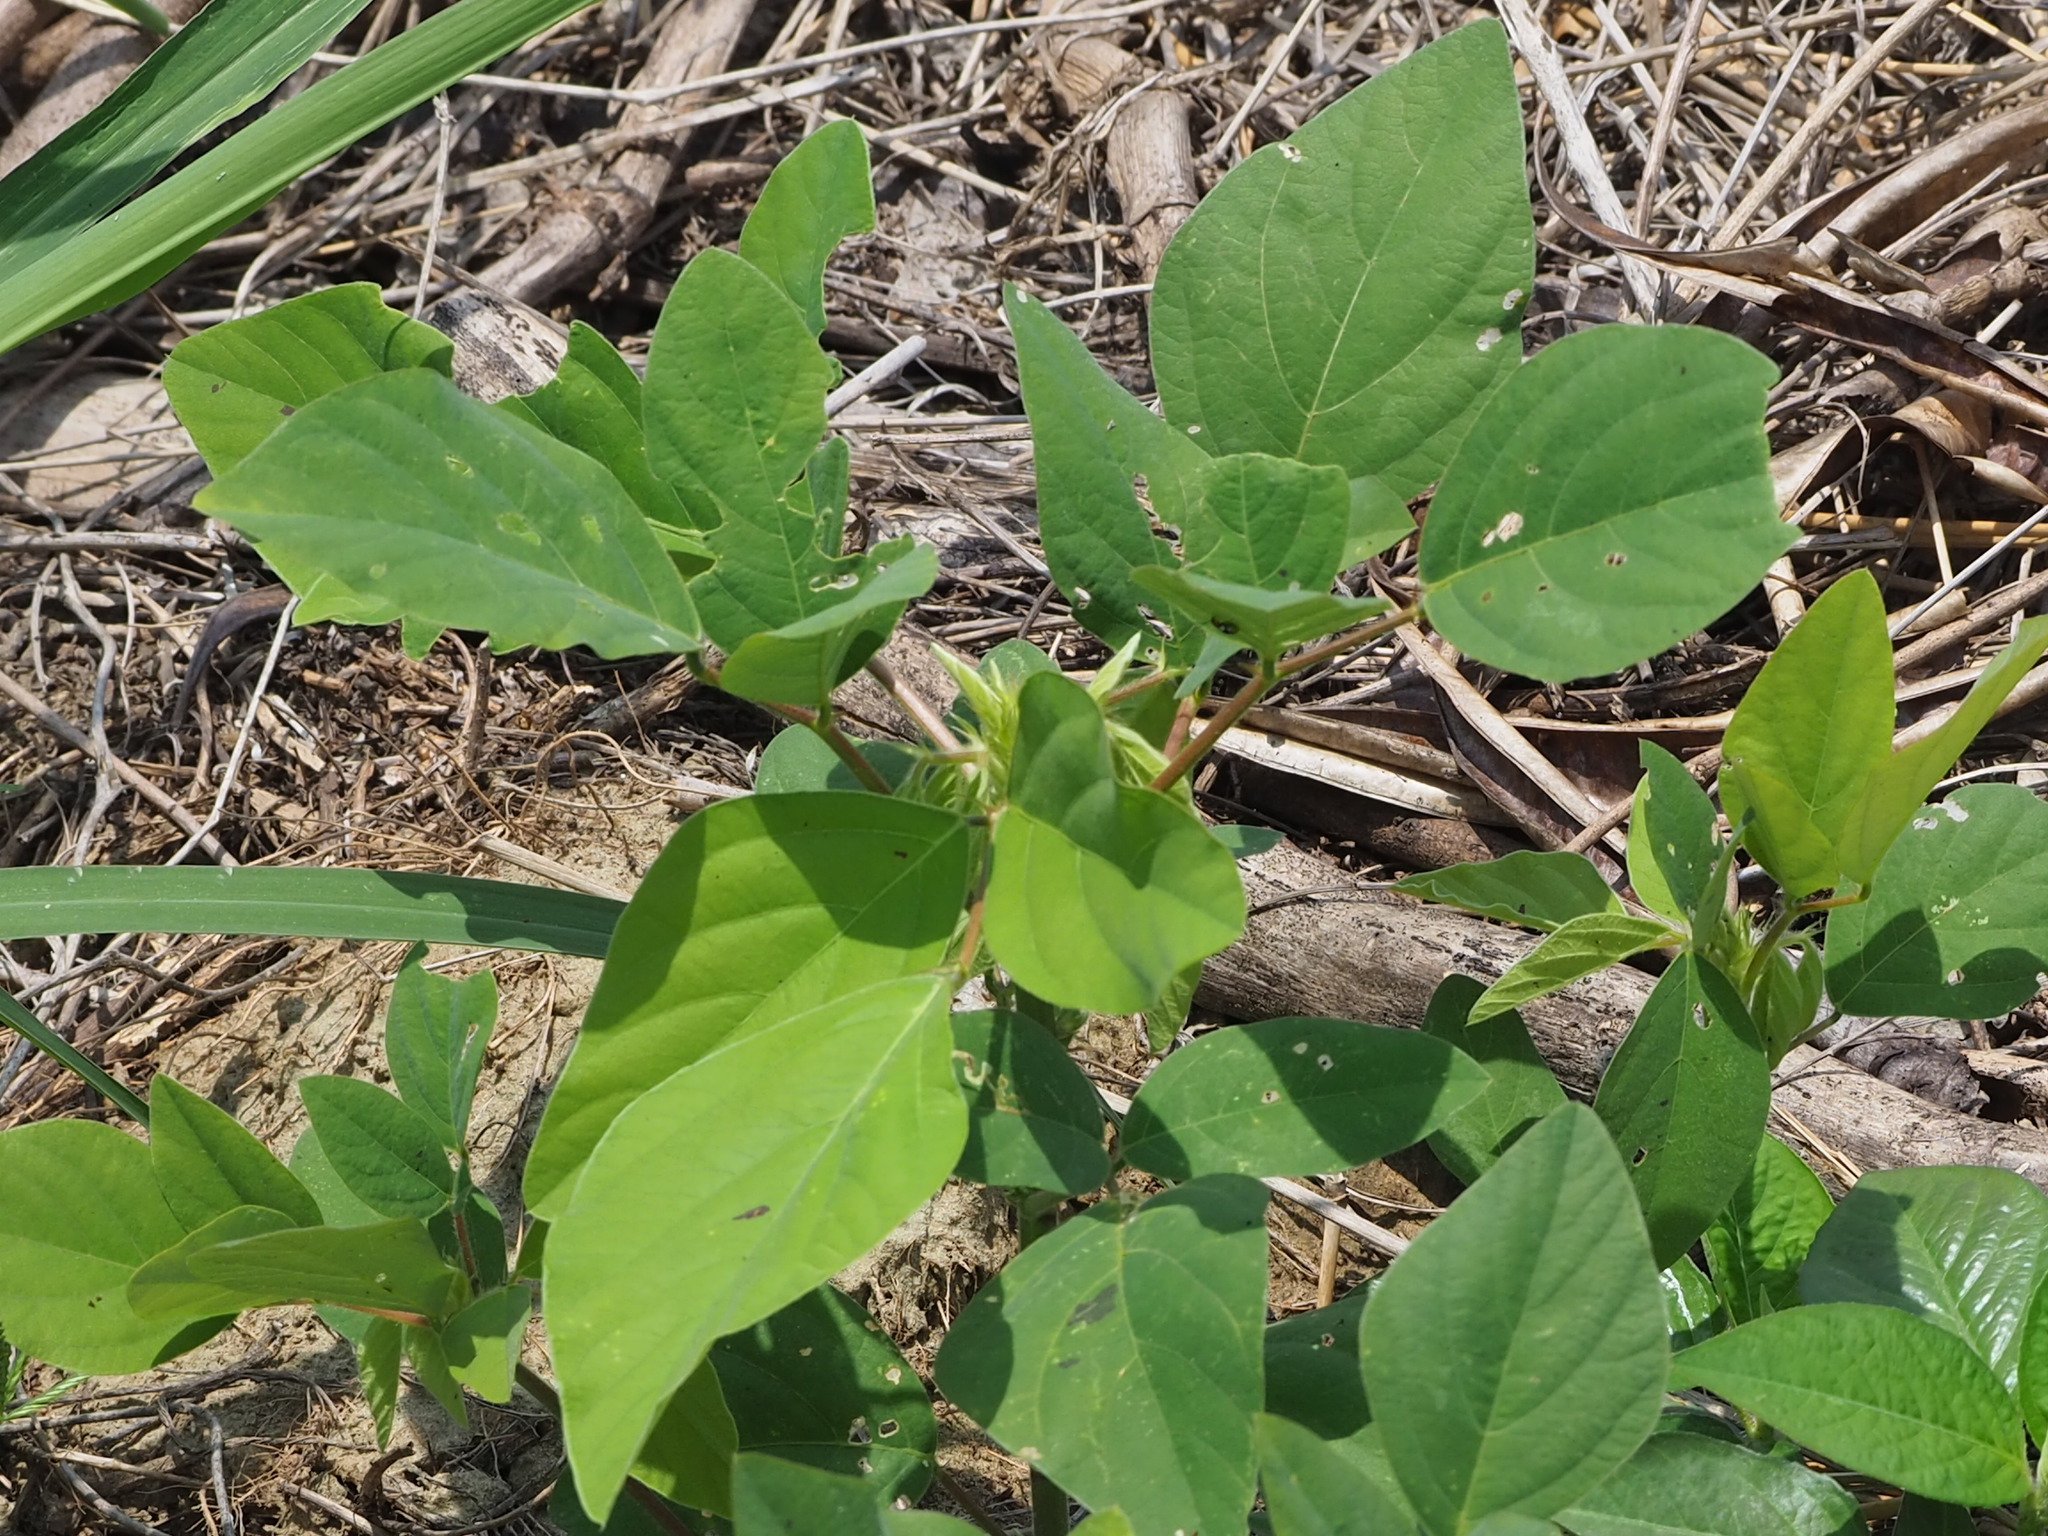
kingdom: Plantae
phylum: Tracheophyta
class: Magnoliopsida
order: Fabales
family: Fabaceae
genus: Pueraria
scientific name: Pueraria montana
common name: Kudzu
